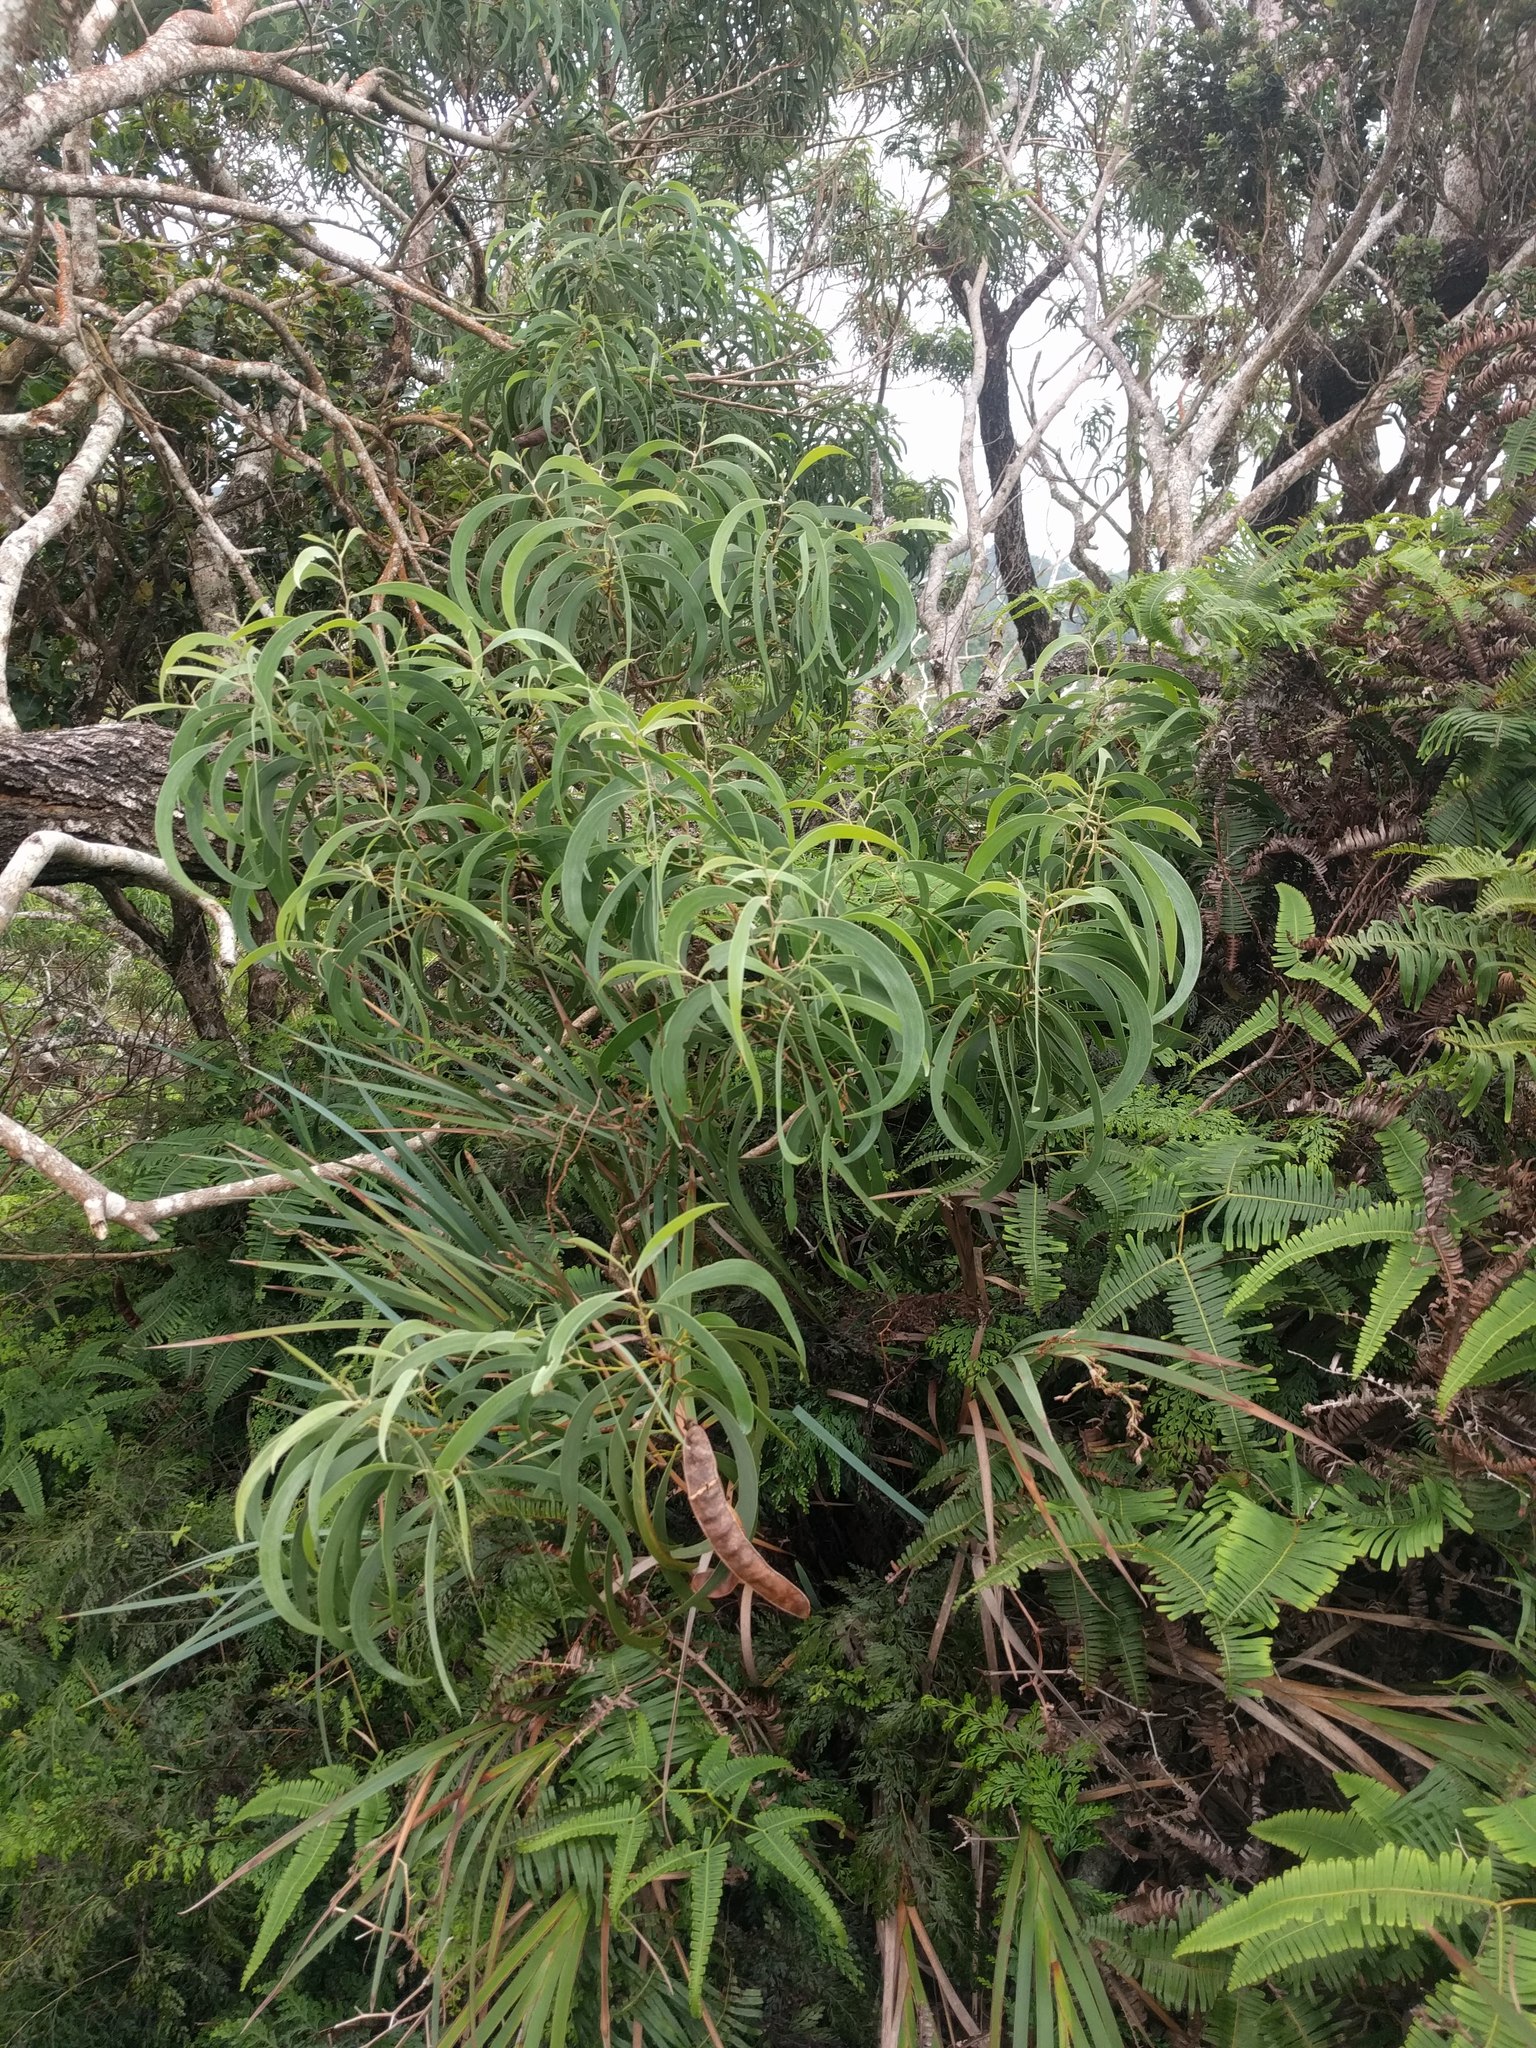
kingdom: Plantae
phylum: Tracheophyta
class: Magnoliopsida
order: Fabales
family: Fabaceae
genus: Acacia
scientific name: Acacia koa
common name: Gray koa
